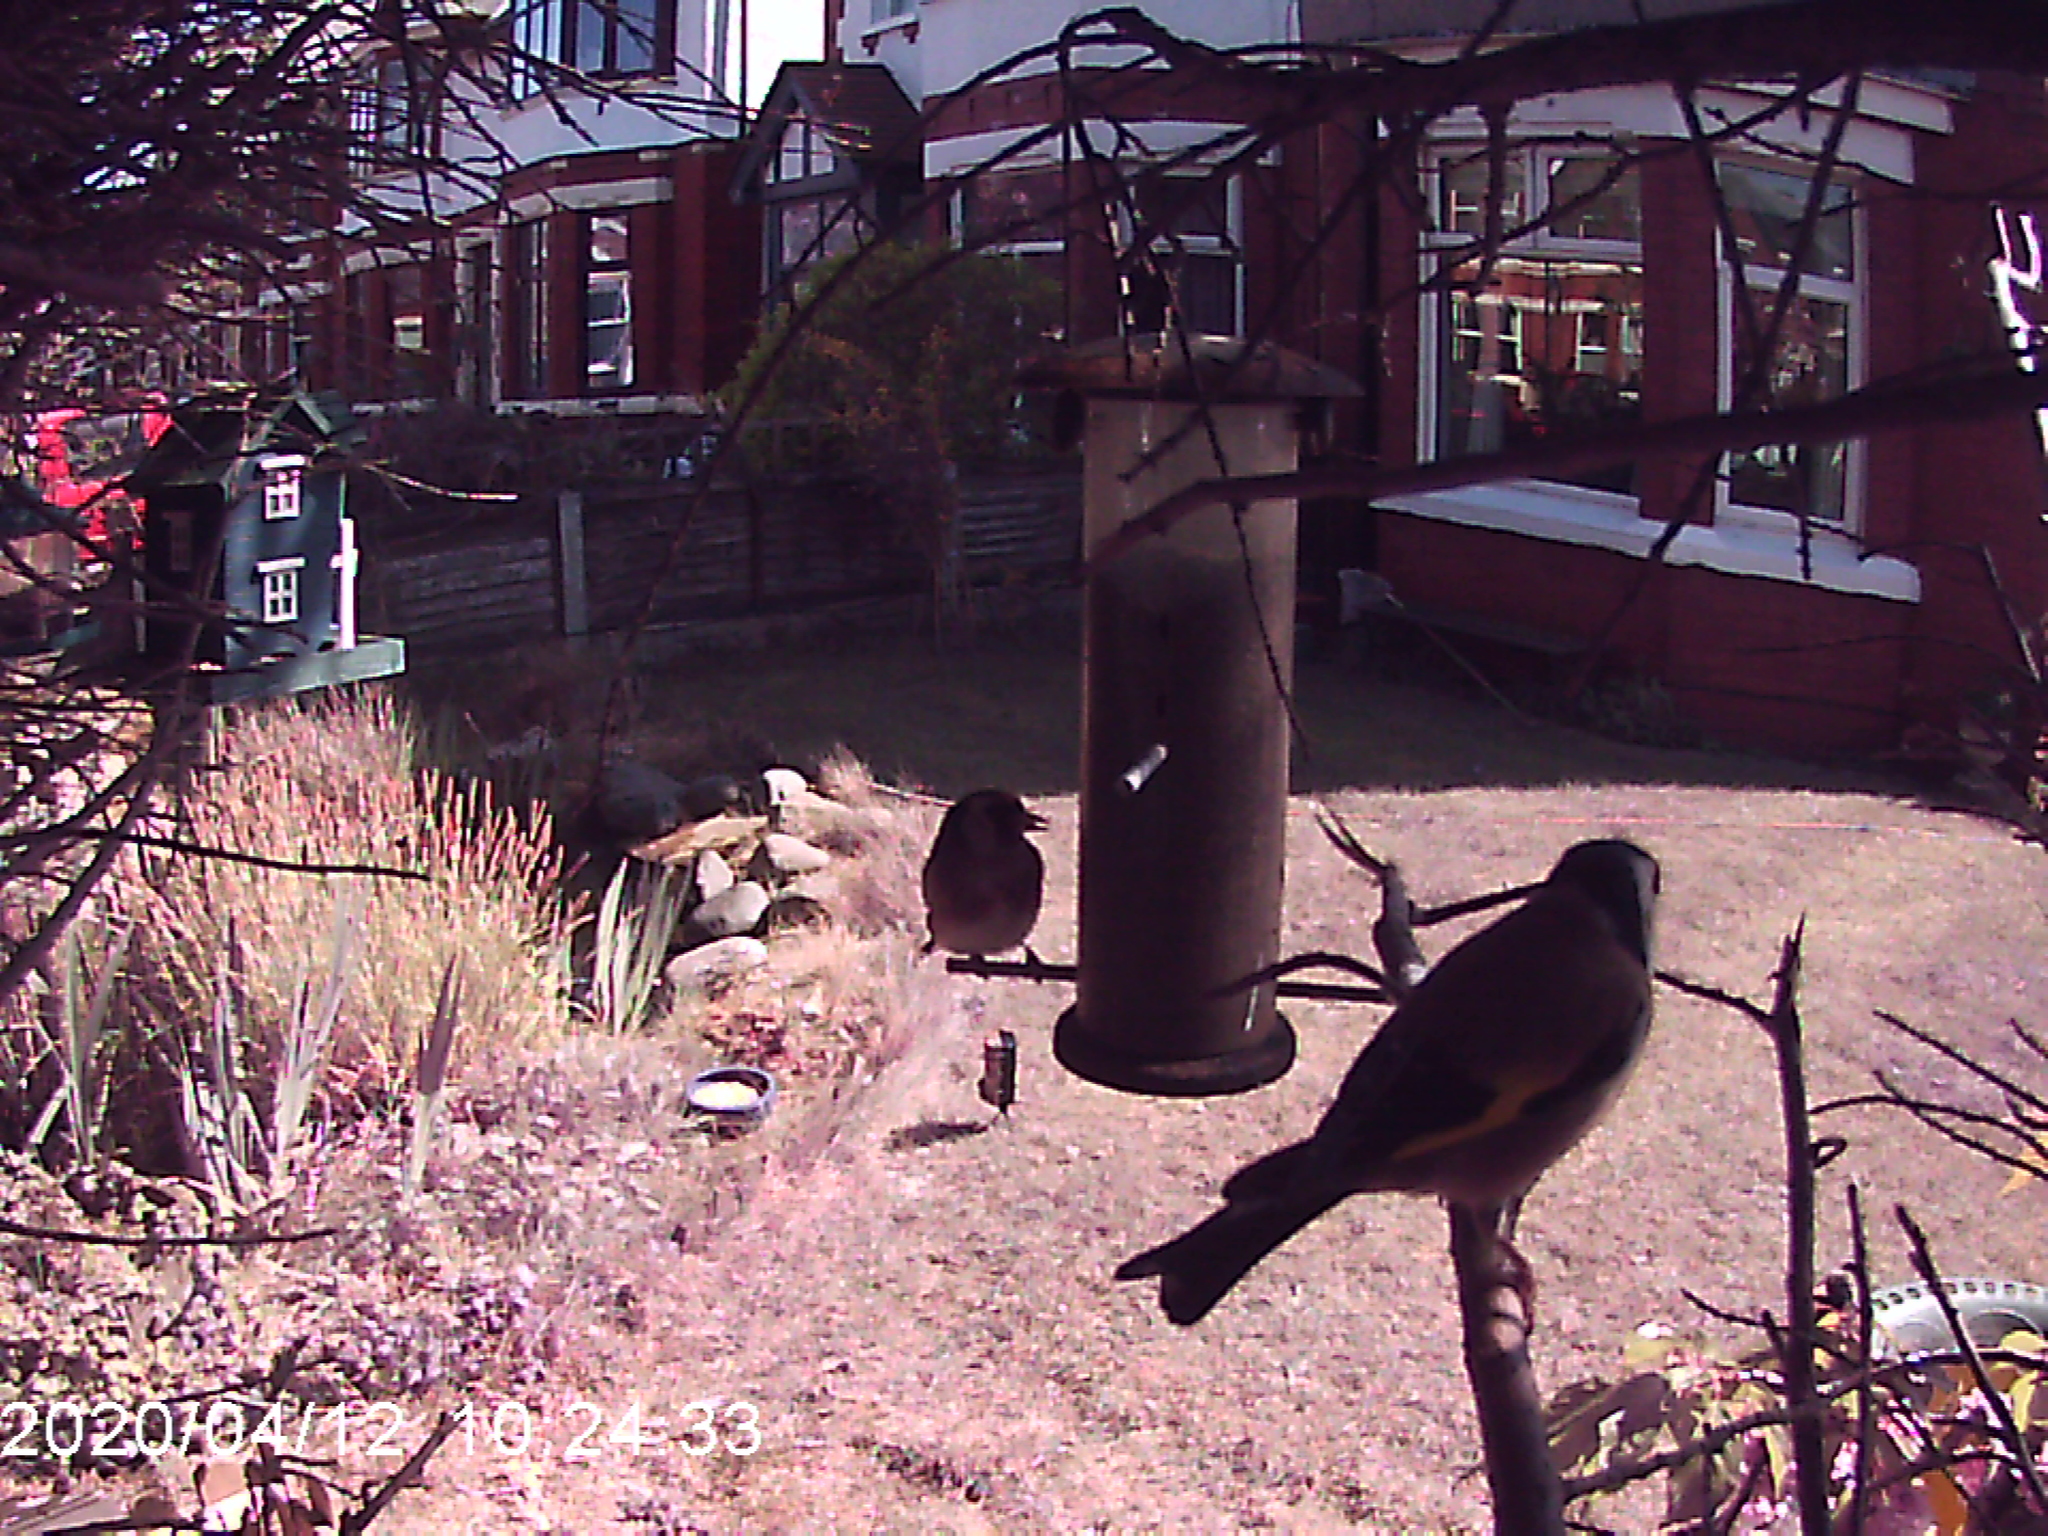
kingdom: Animalia
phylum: Chordata
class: Aves
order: Passeriformes
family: Fringillidae
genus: Carduelis
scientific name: Carduelis carduelis
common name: European goldfinch
